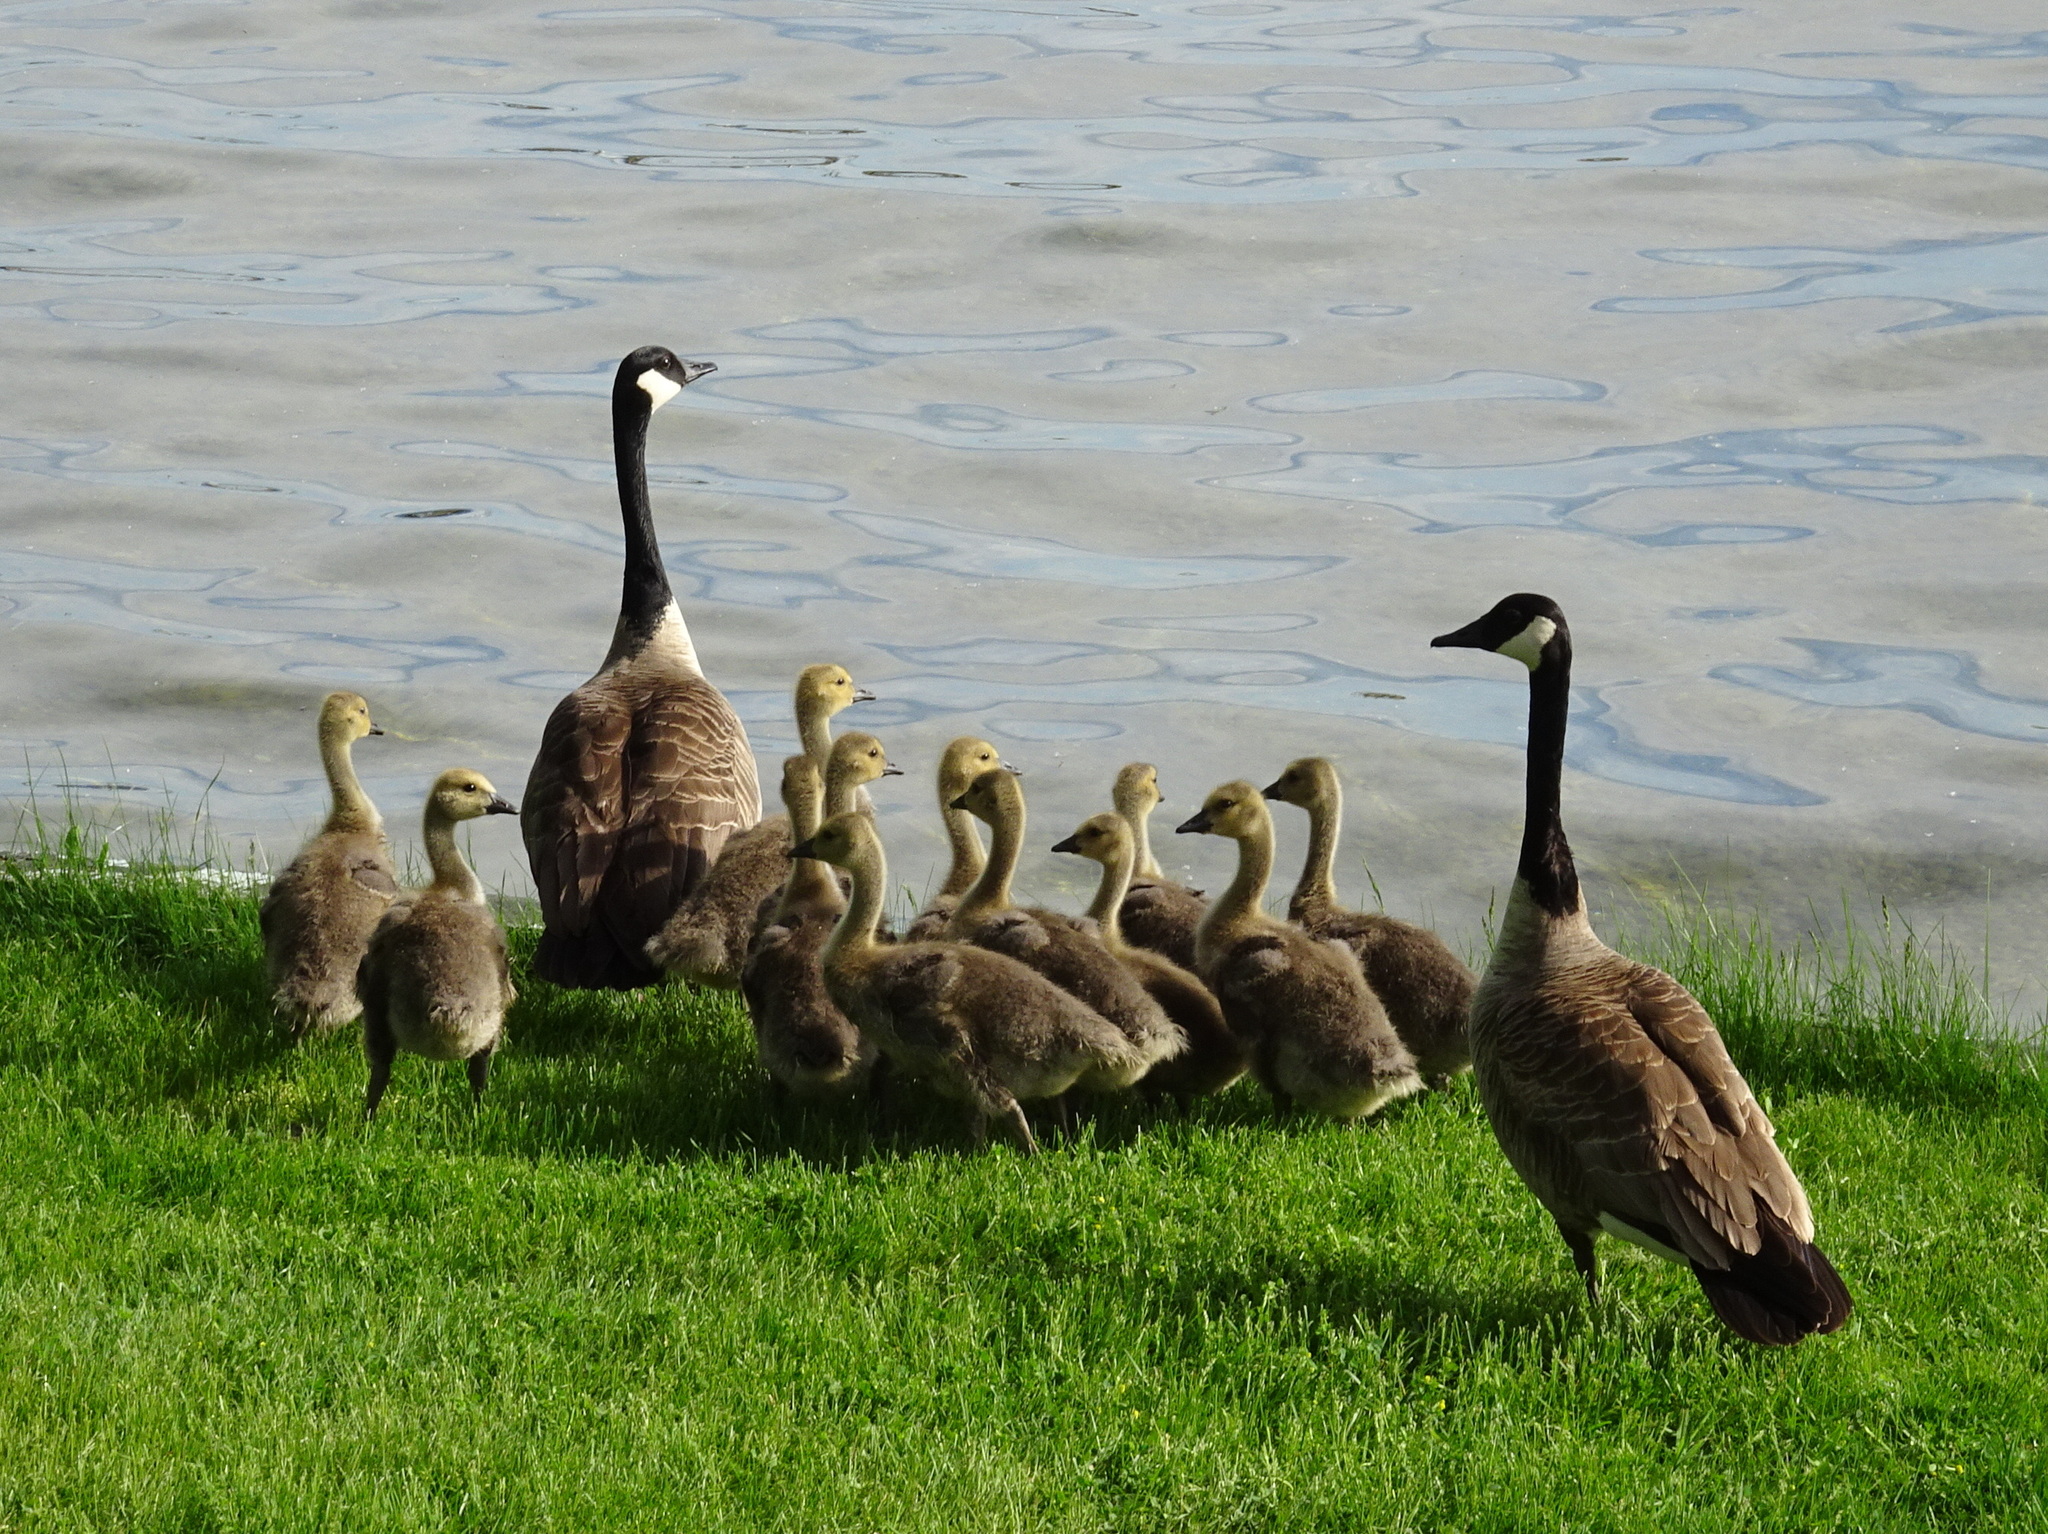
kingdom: Animalia
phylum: Chordata
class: Aves
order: Anseriformes
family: Anatidae
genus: Branta
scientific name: Branta canadensis
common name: Canada goose
